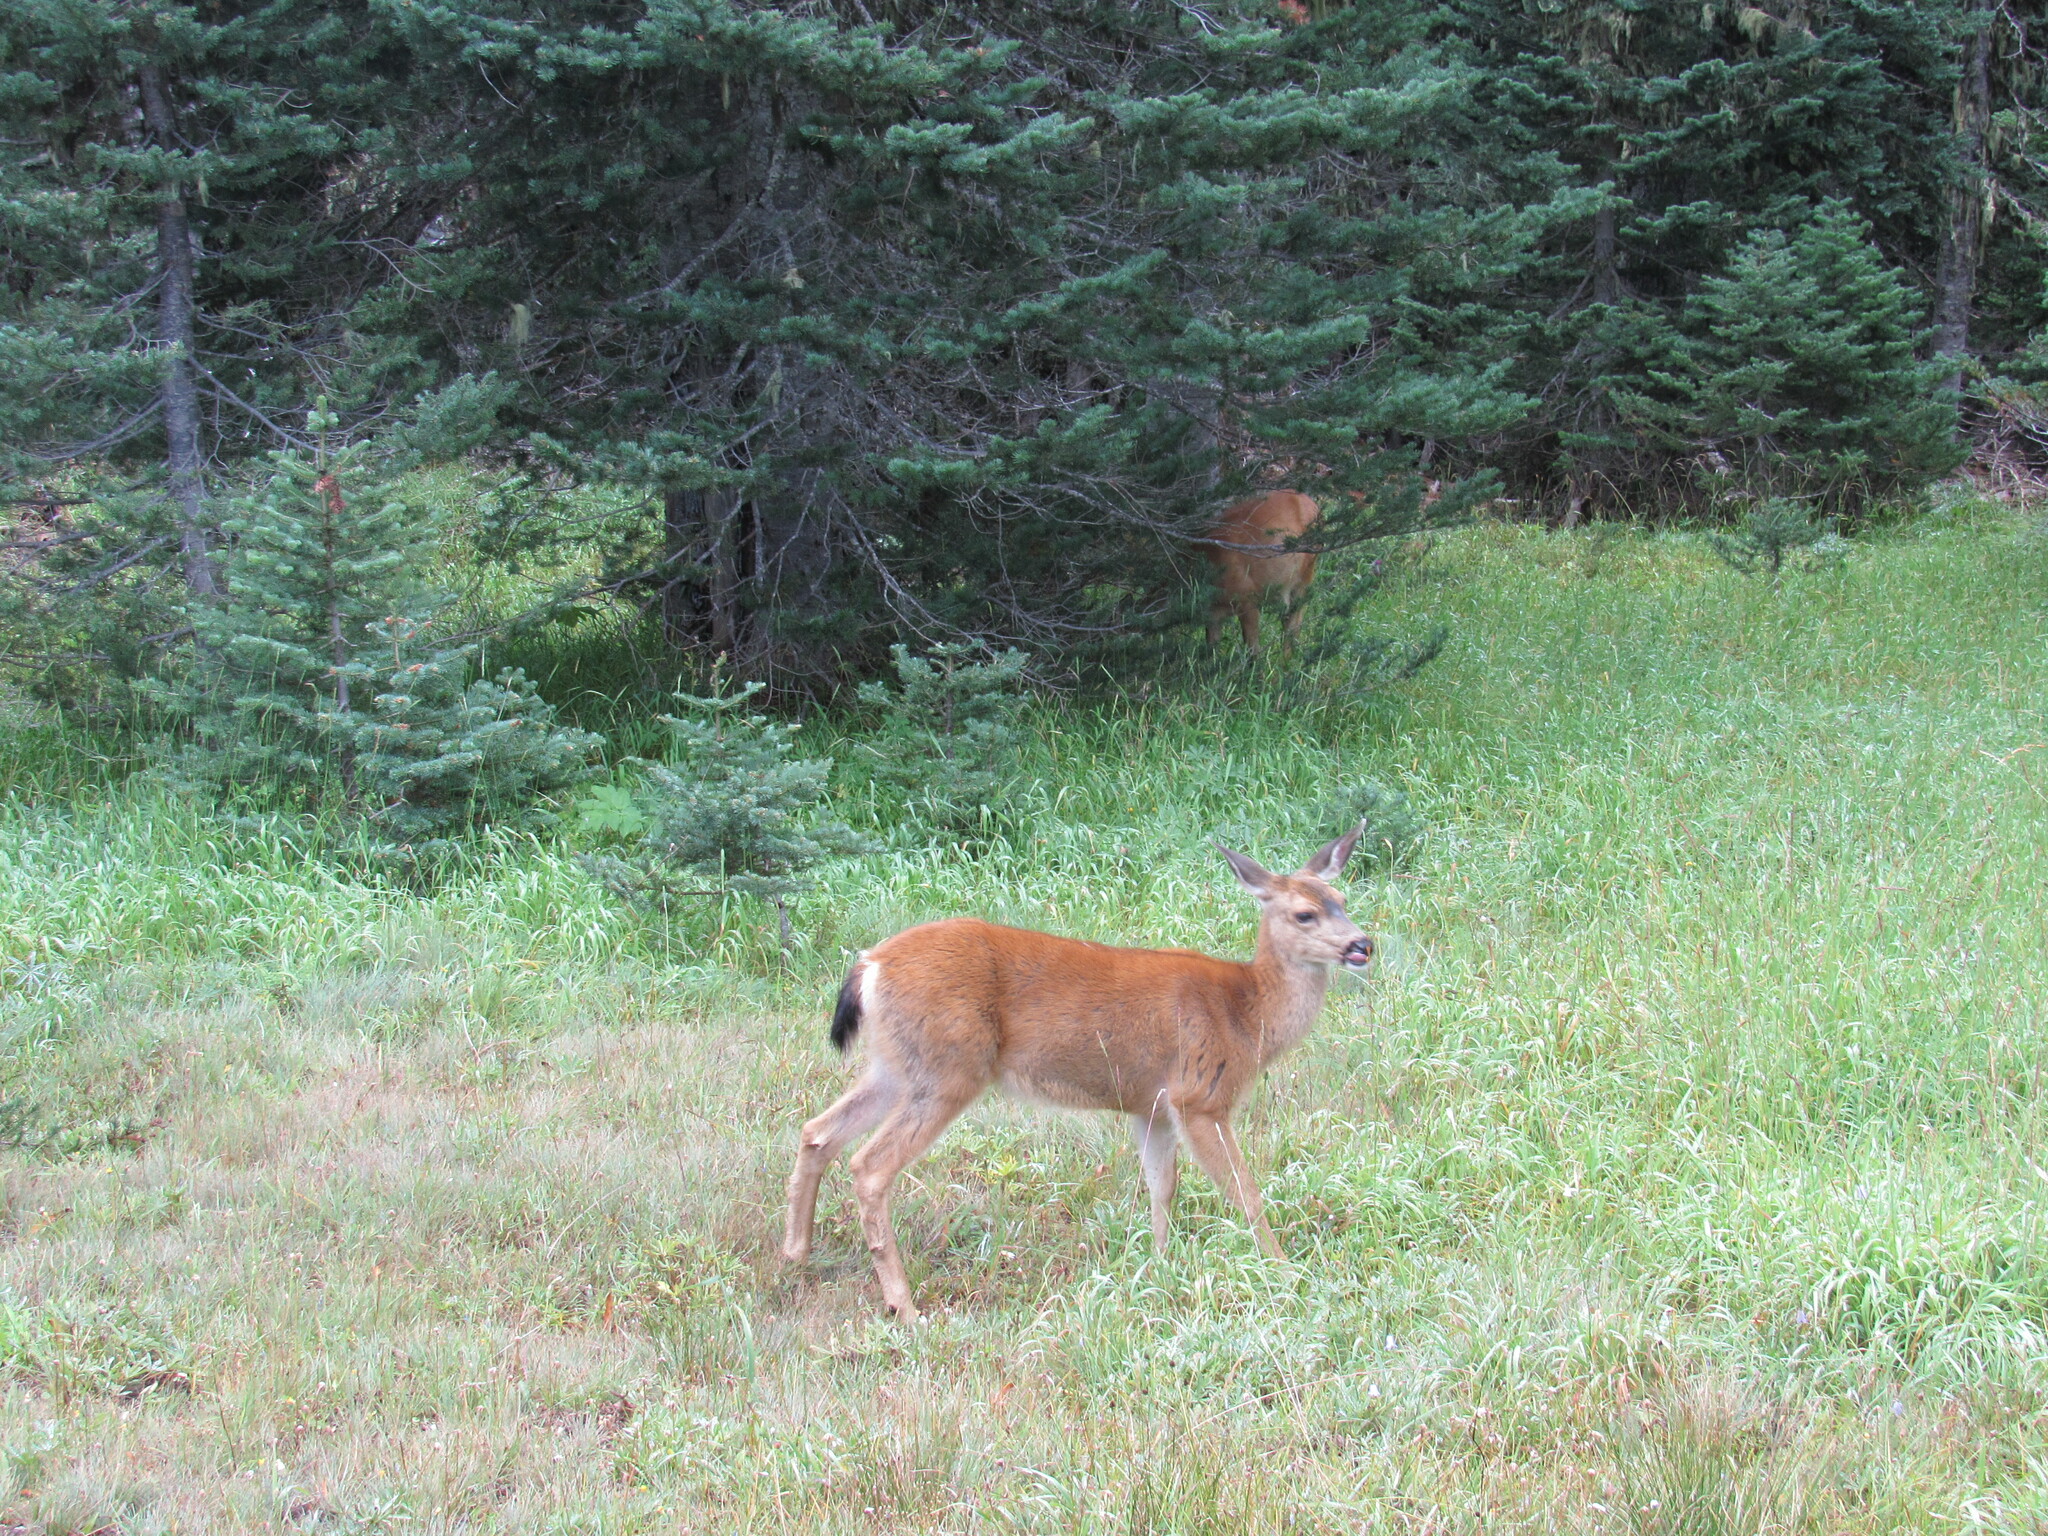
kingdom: Animalia
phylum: Chordata
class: Mammalia
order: Artiodactyla
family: Cervidae
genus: Odocoileus
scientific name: Odocoileus hemionus
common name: Mule deer
